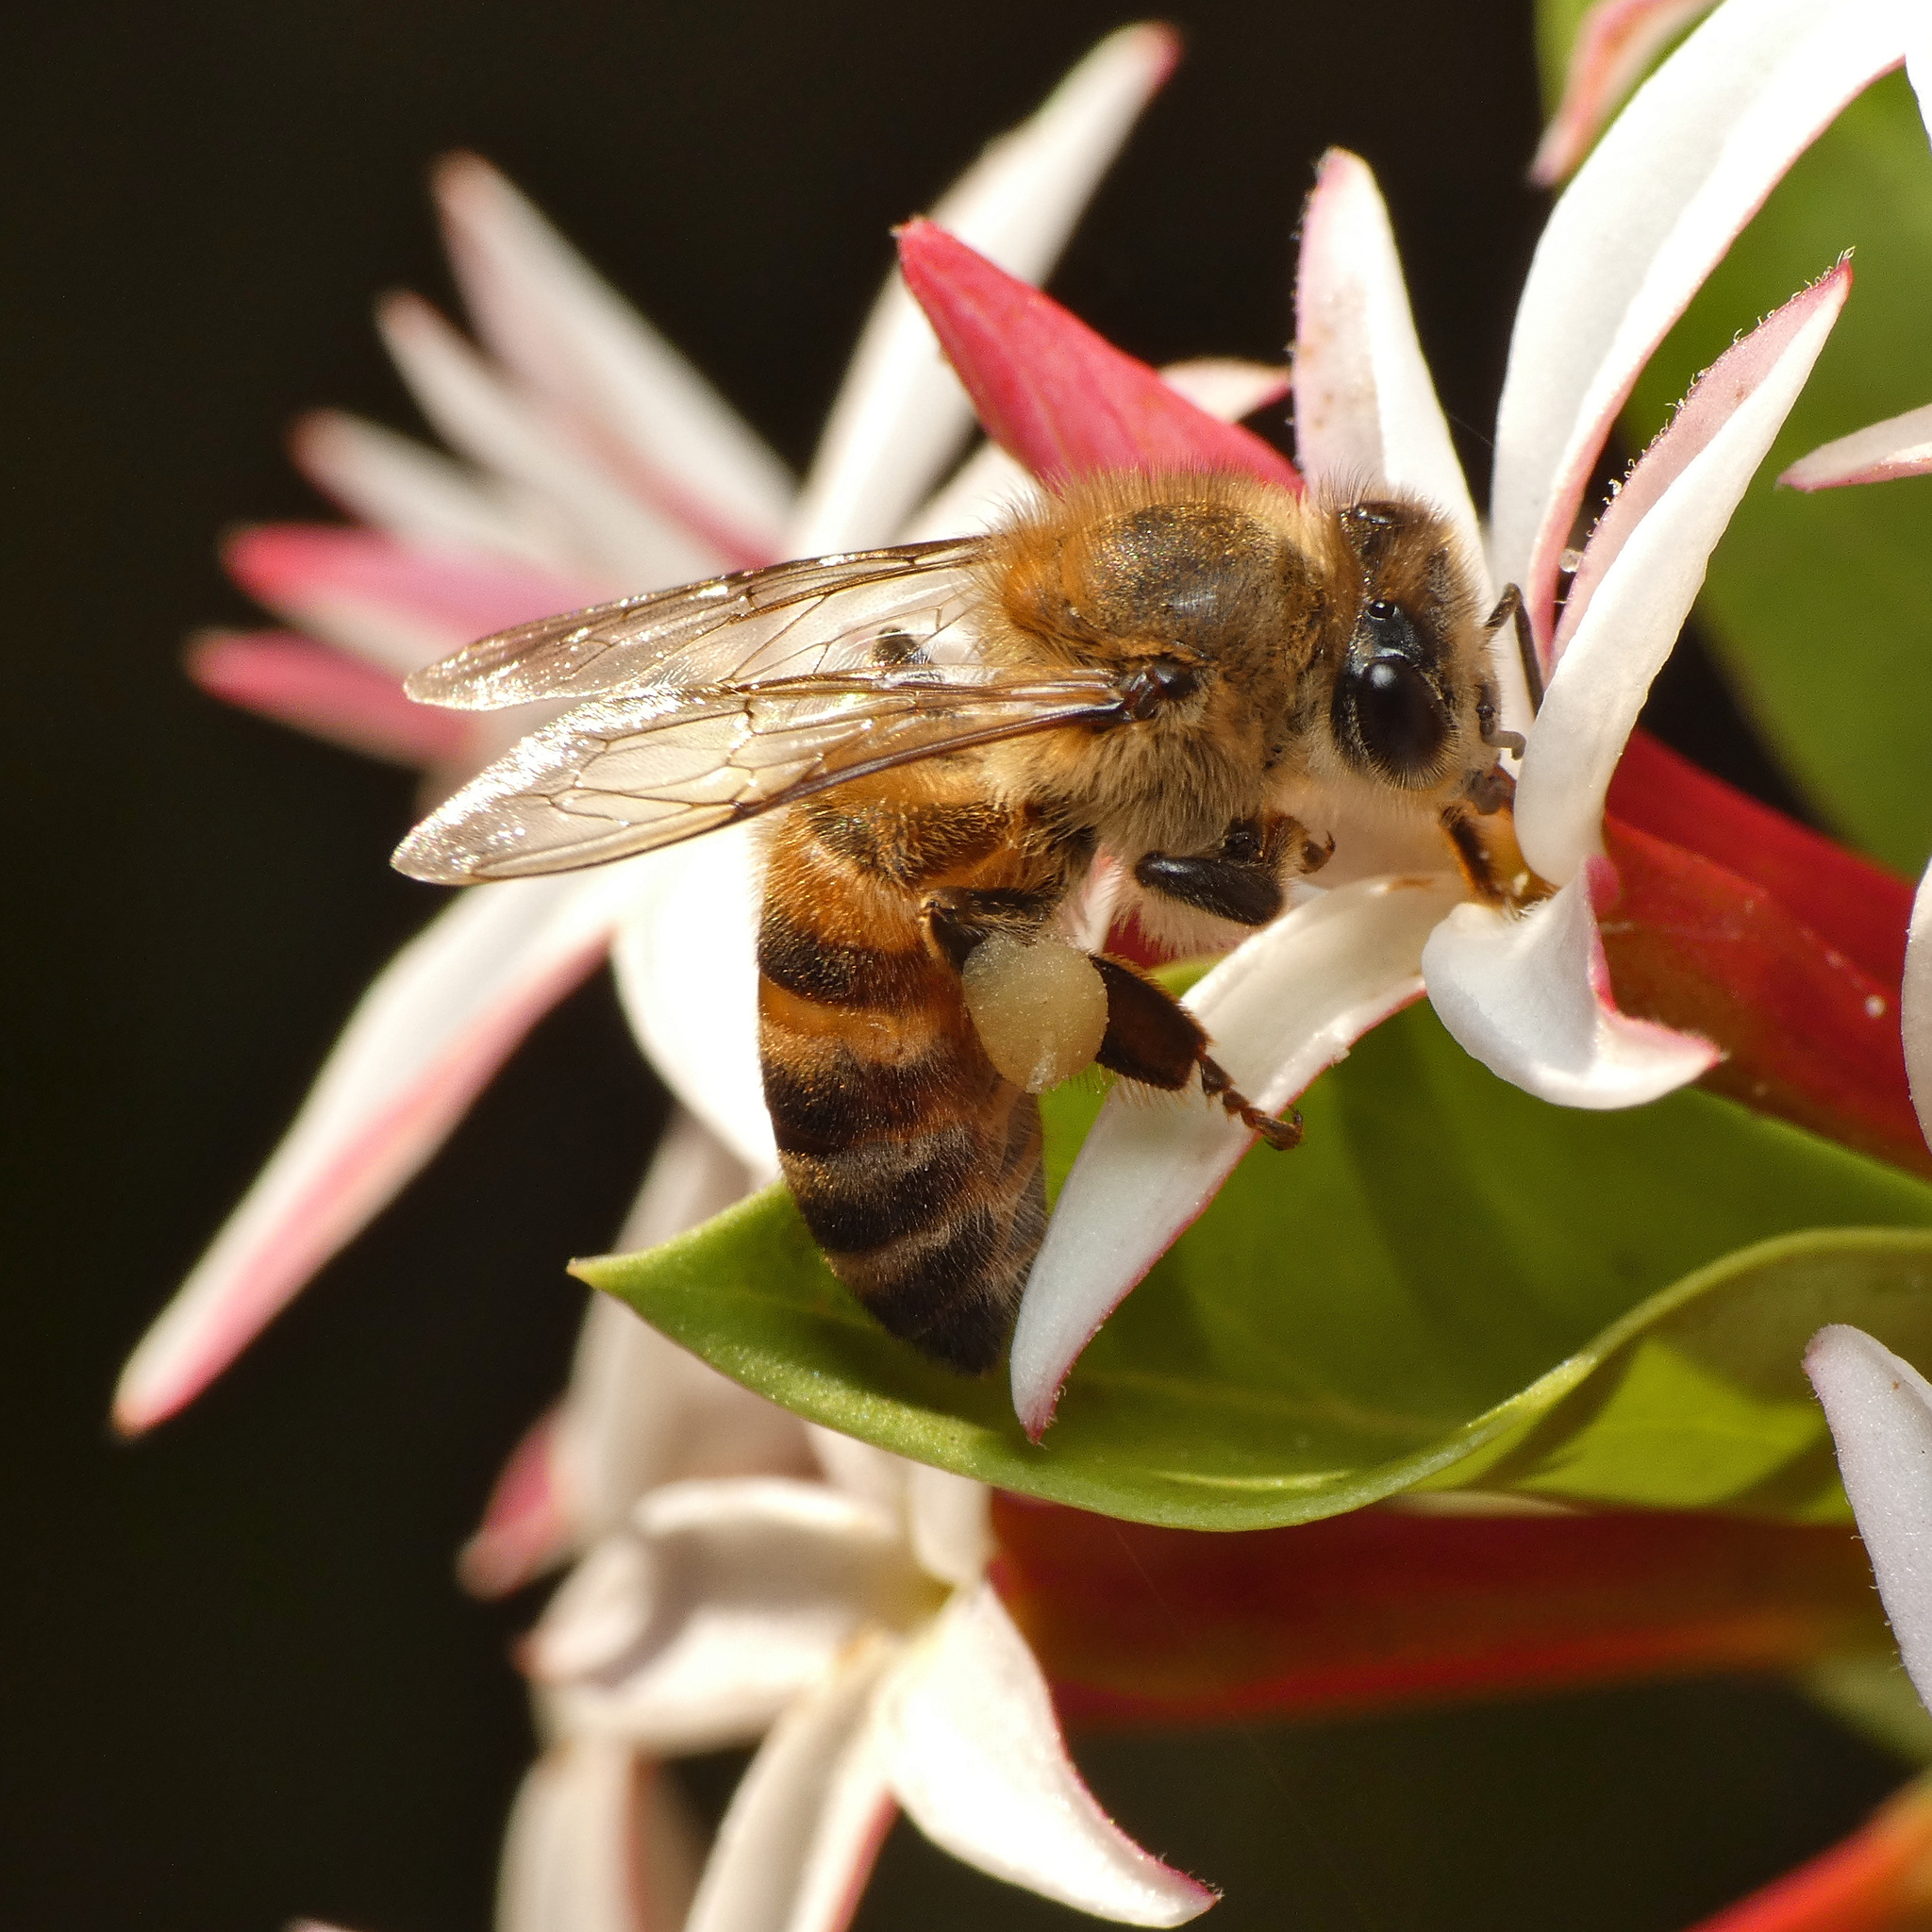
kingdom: Animalia
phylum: Arthropoda
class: Insecta
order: Hymenoptera
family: Apidae
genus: Apis
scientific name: Apis mellifera
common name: Honey bee
